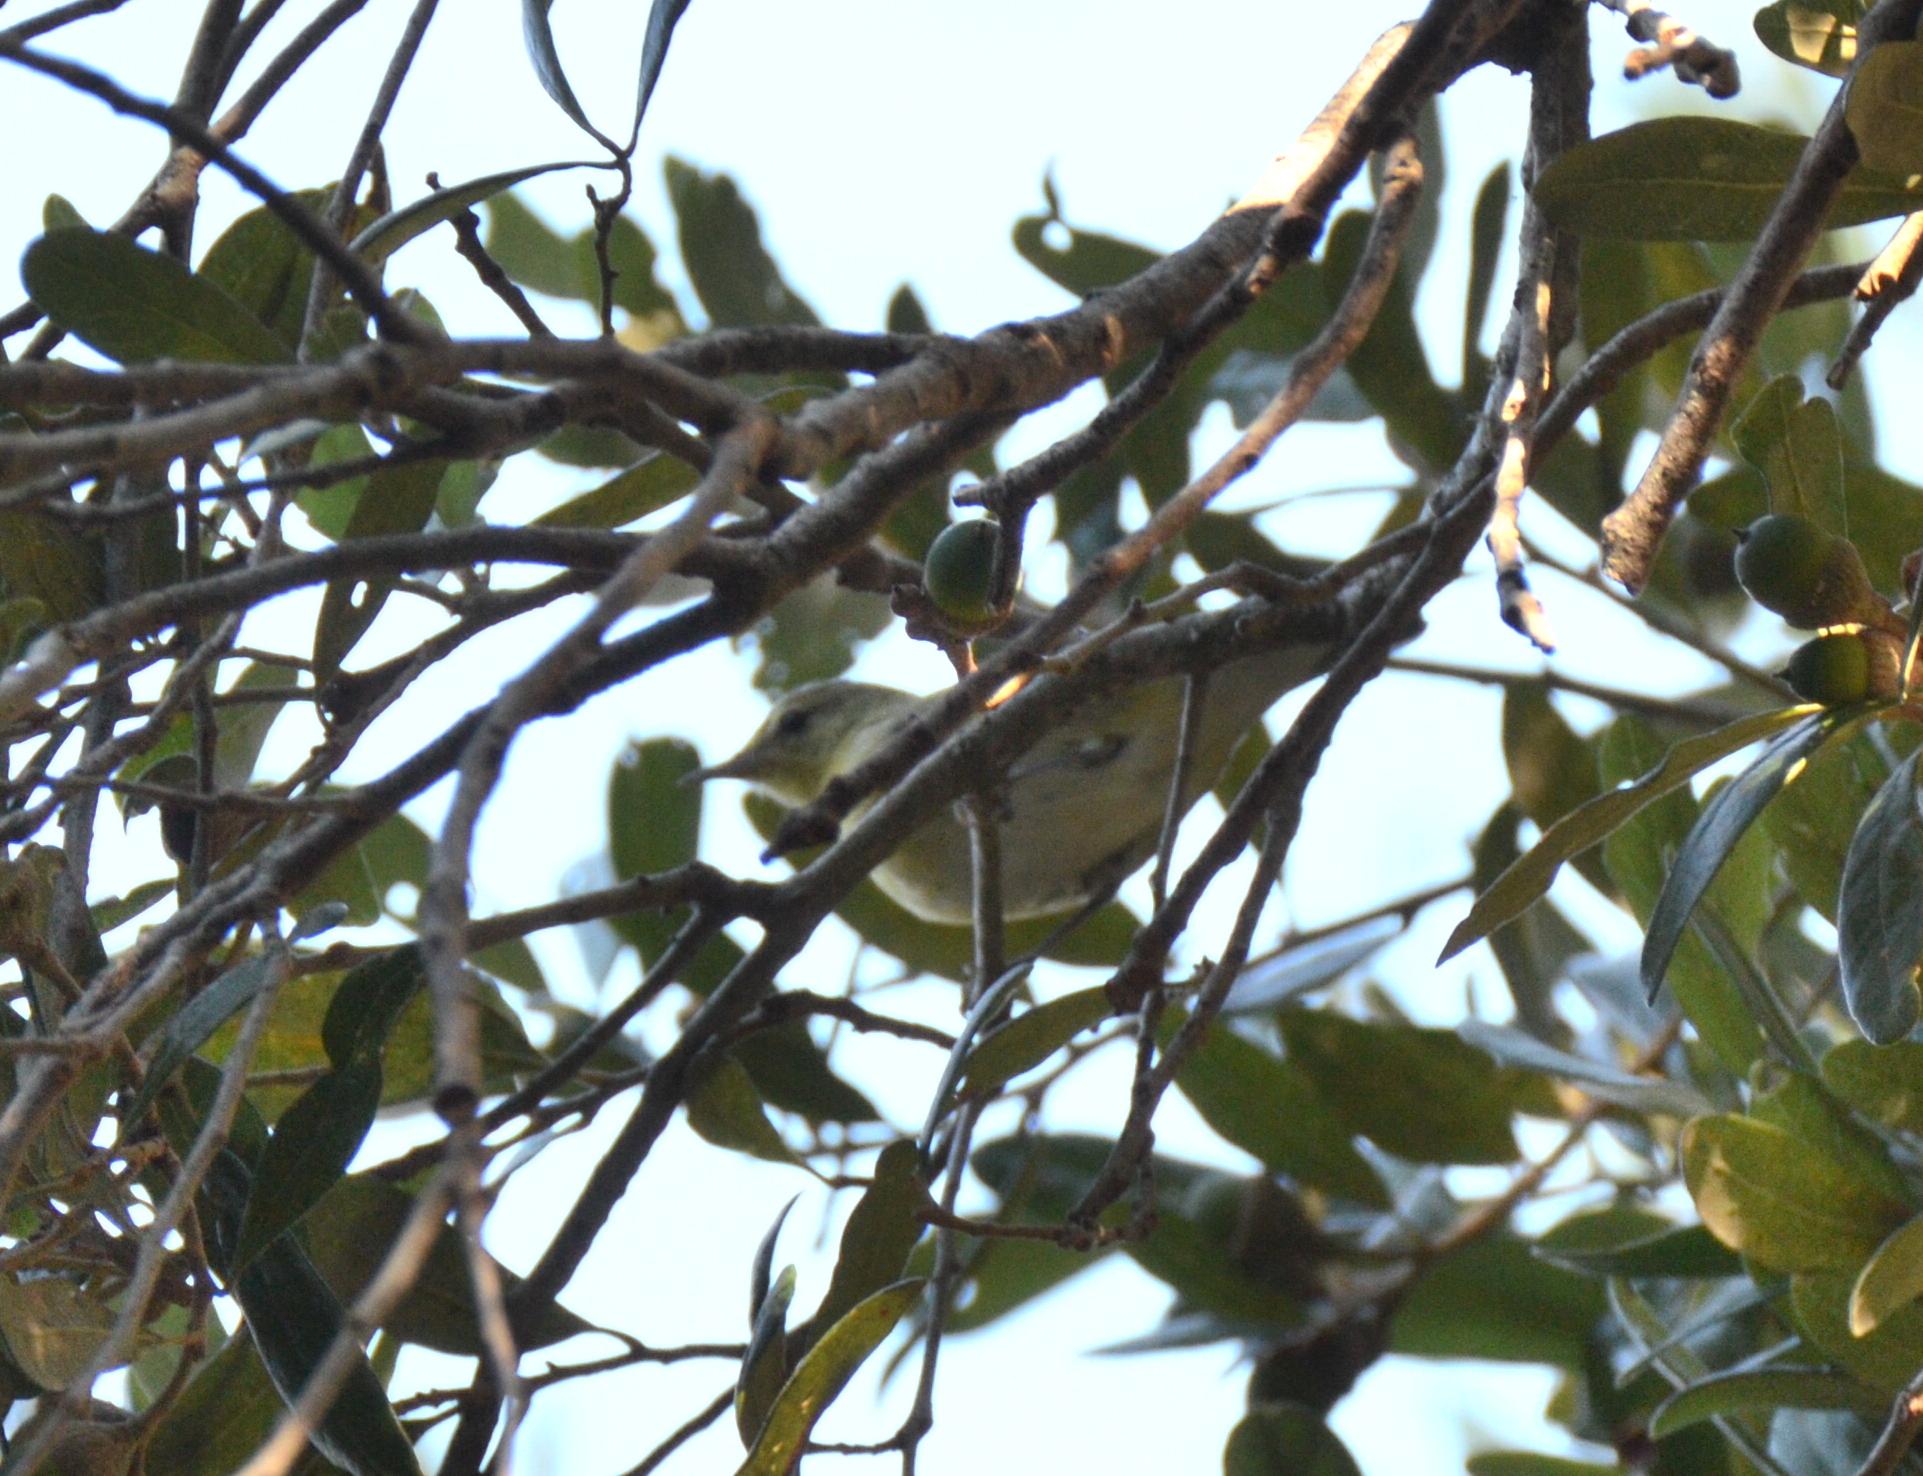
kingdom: Animalia
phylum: Chordata
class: Aves
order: Passeriformes
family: Parulidae
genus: Leiothlypis
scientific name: Leiothlypis celata
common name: Orange-crowned warbler
